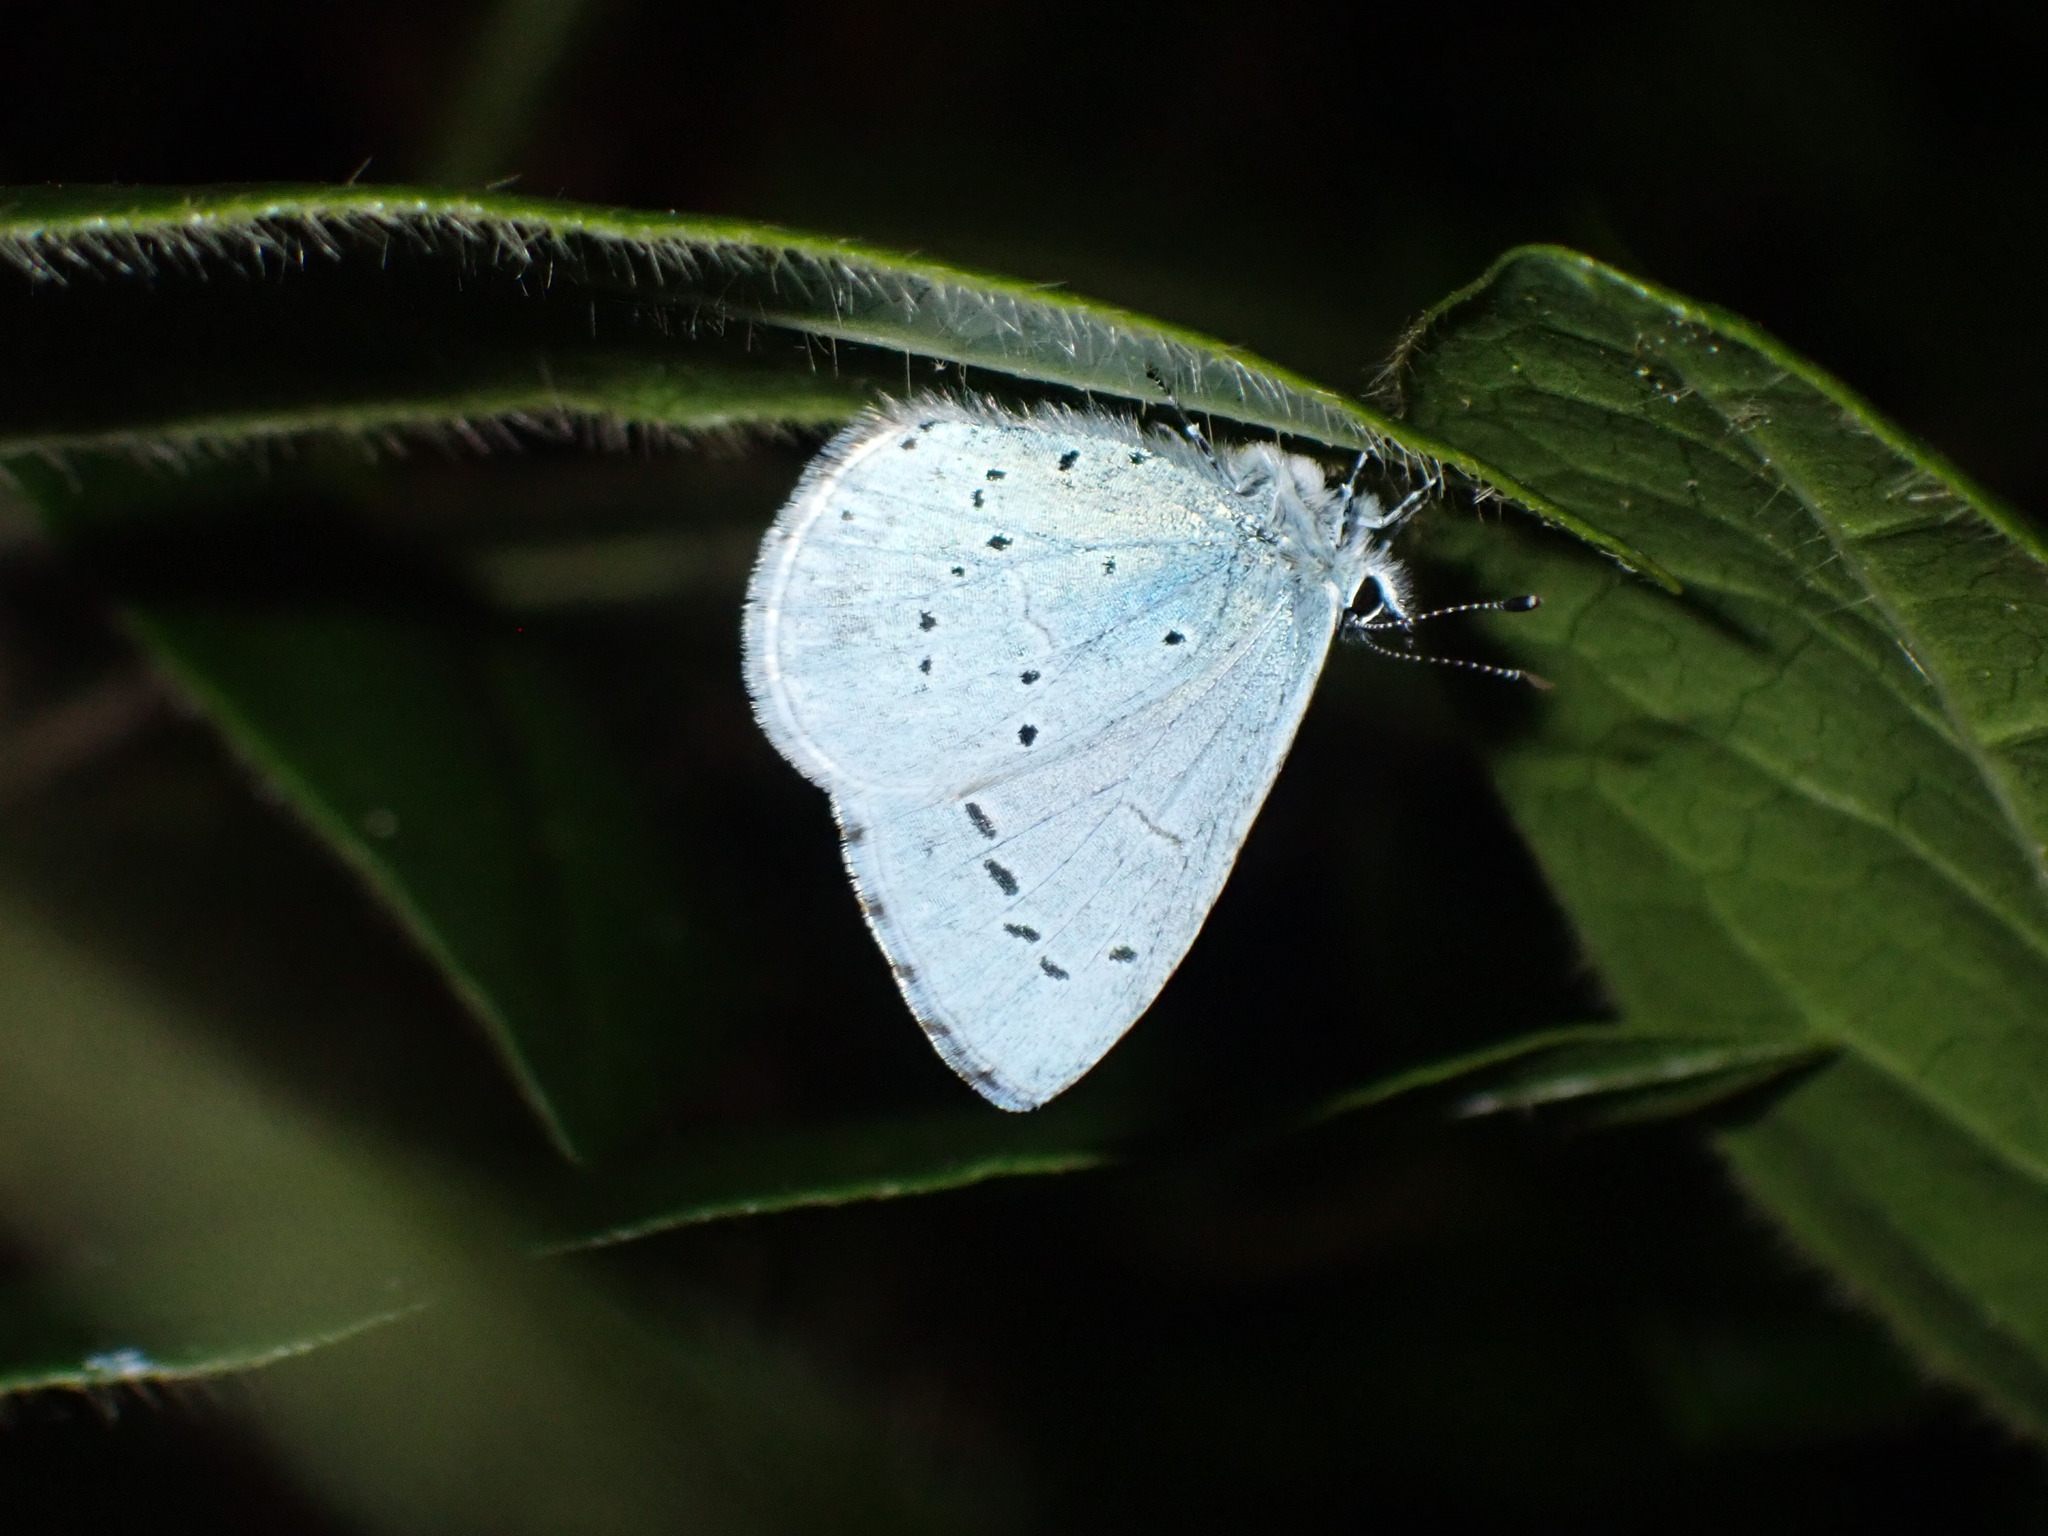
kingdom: Animalia
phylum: Arthropoda
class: Insecta
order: Lepidoptera
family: Lycaenidae
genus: Celastrina
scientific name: Celastrina argiolus
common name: Holly blue
